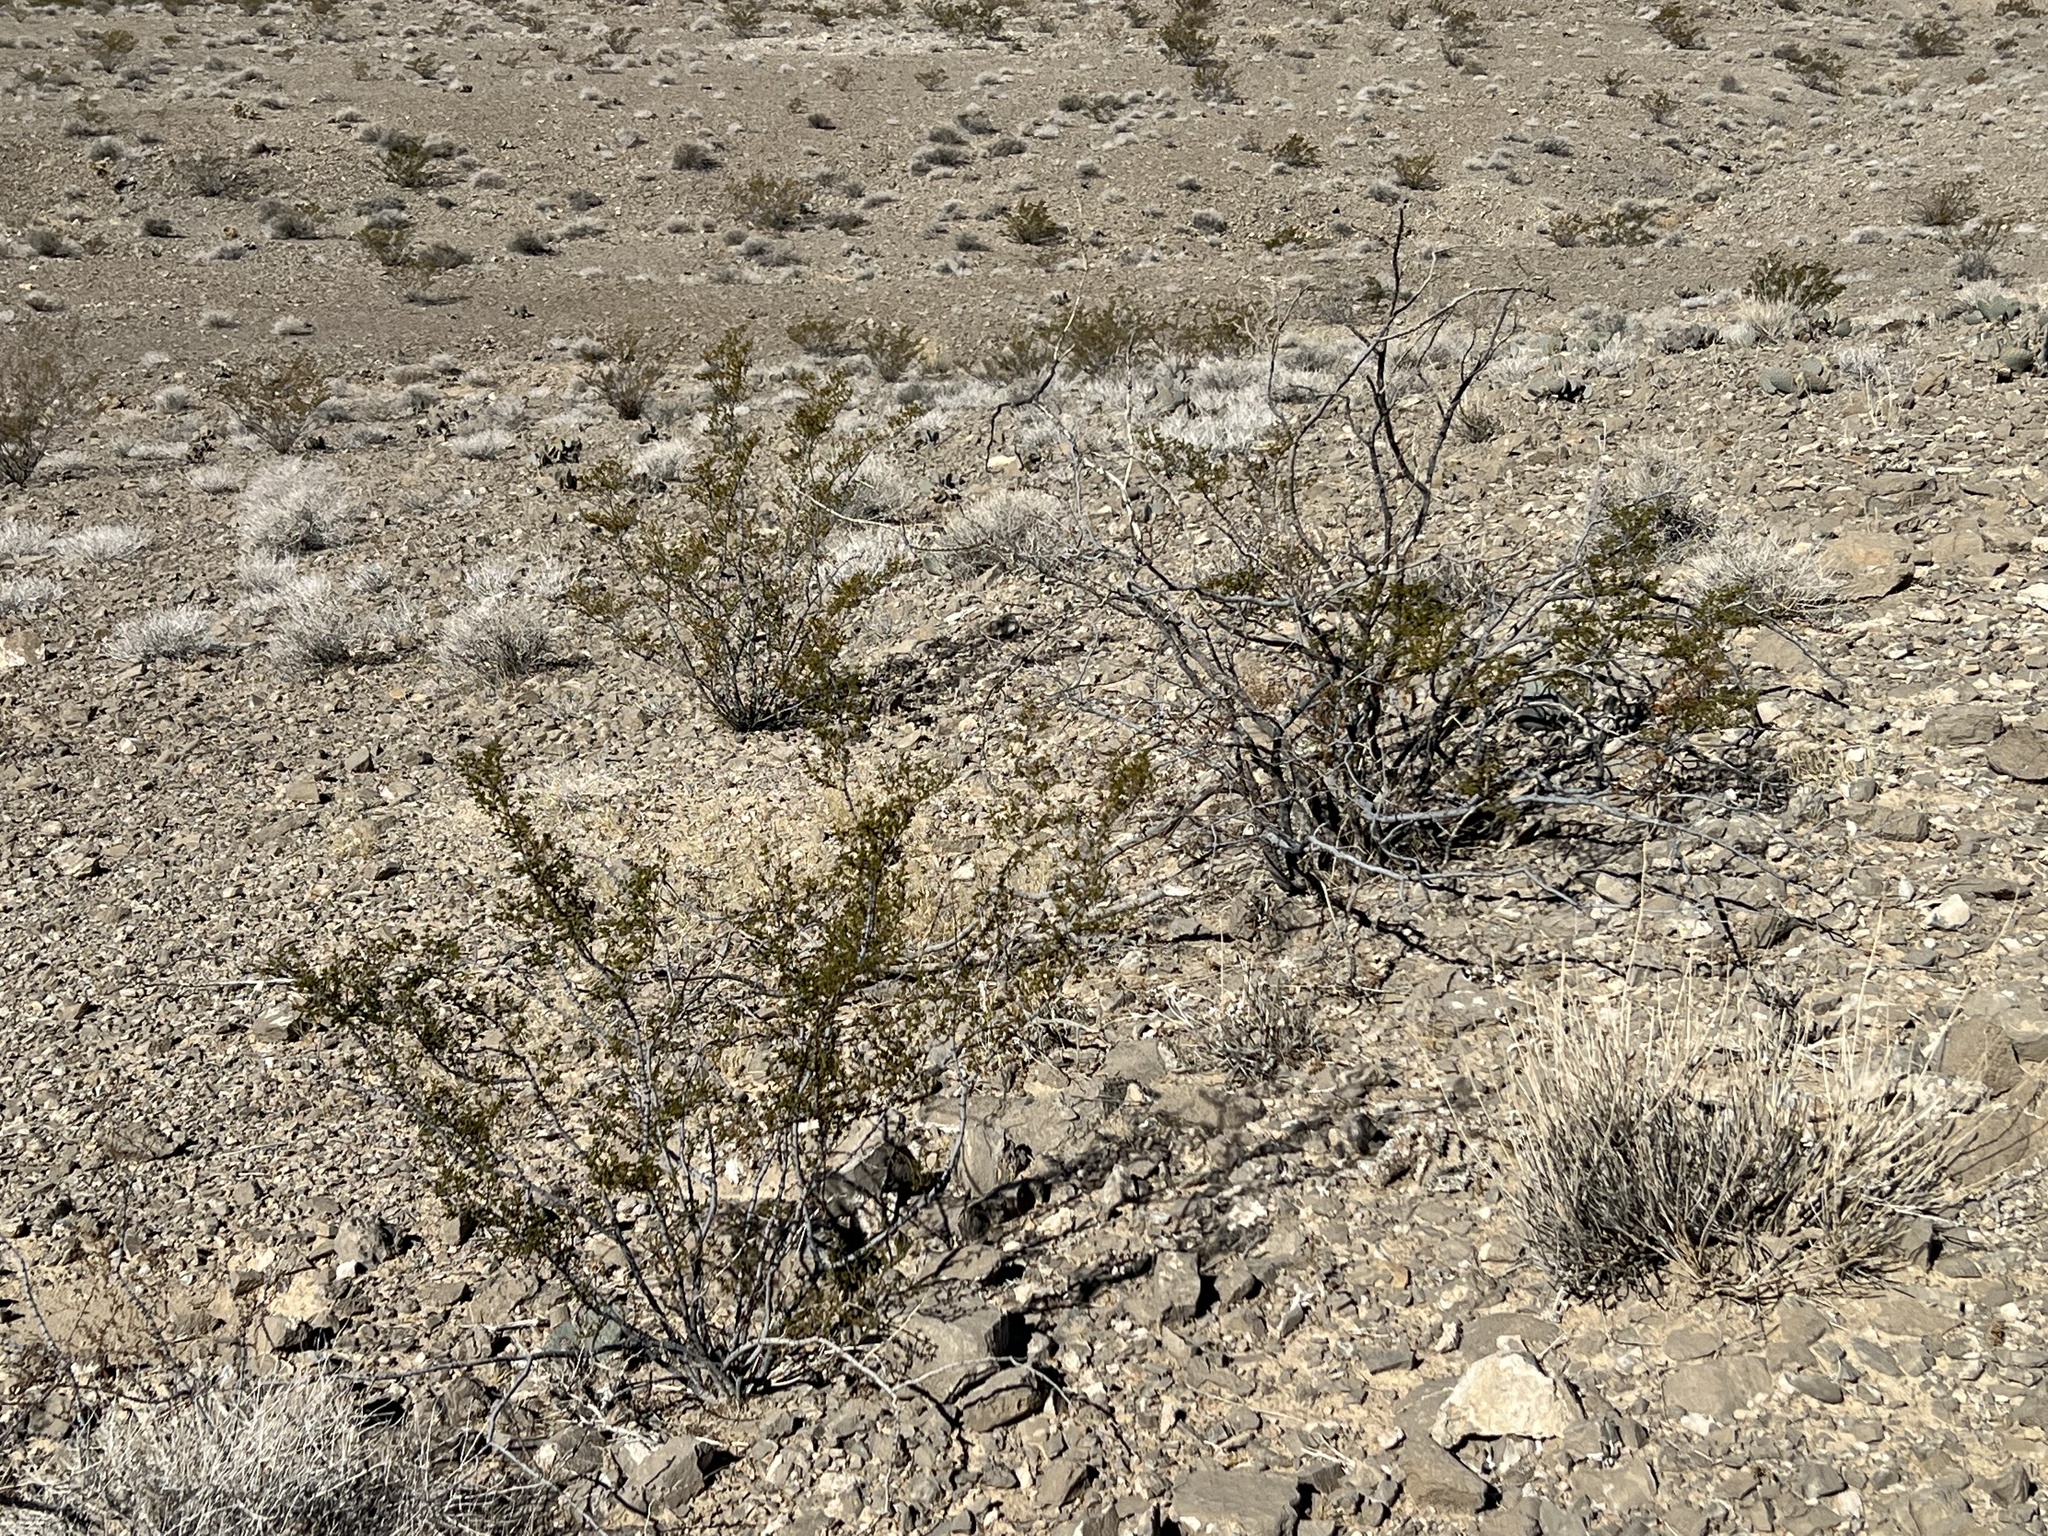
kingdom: Plantae
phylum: Tracheophyta
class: Magnoliopsida
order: Zygophyllales
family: Zygophyllaceae
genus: Larrea
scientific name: Larrea tridentata
